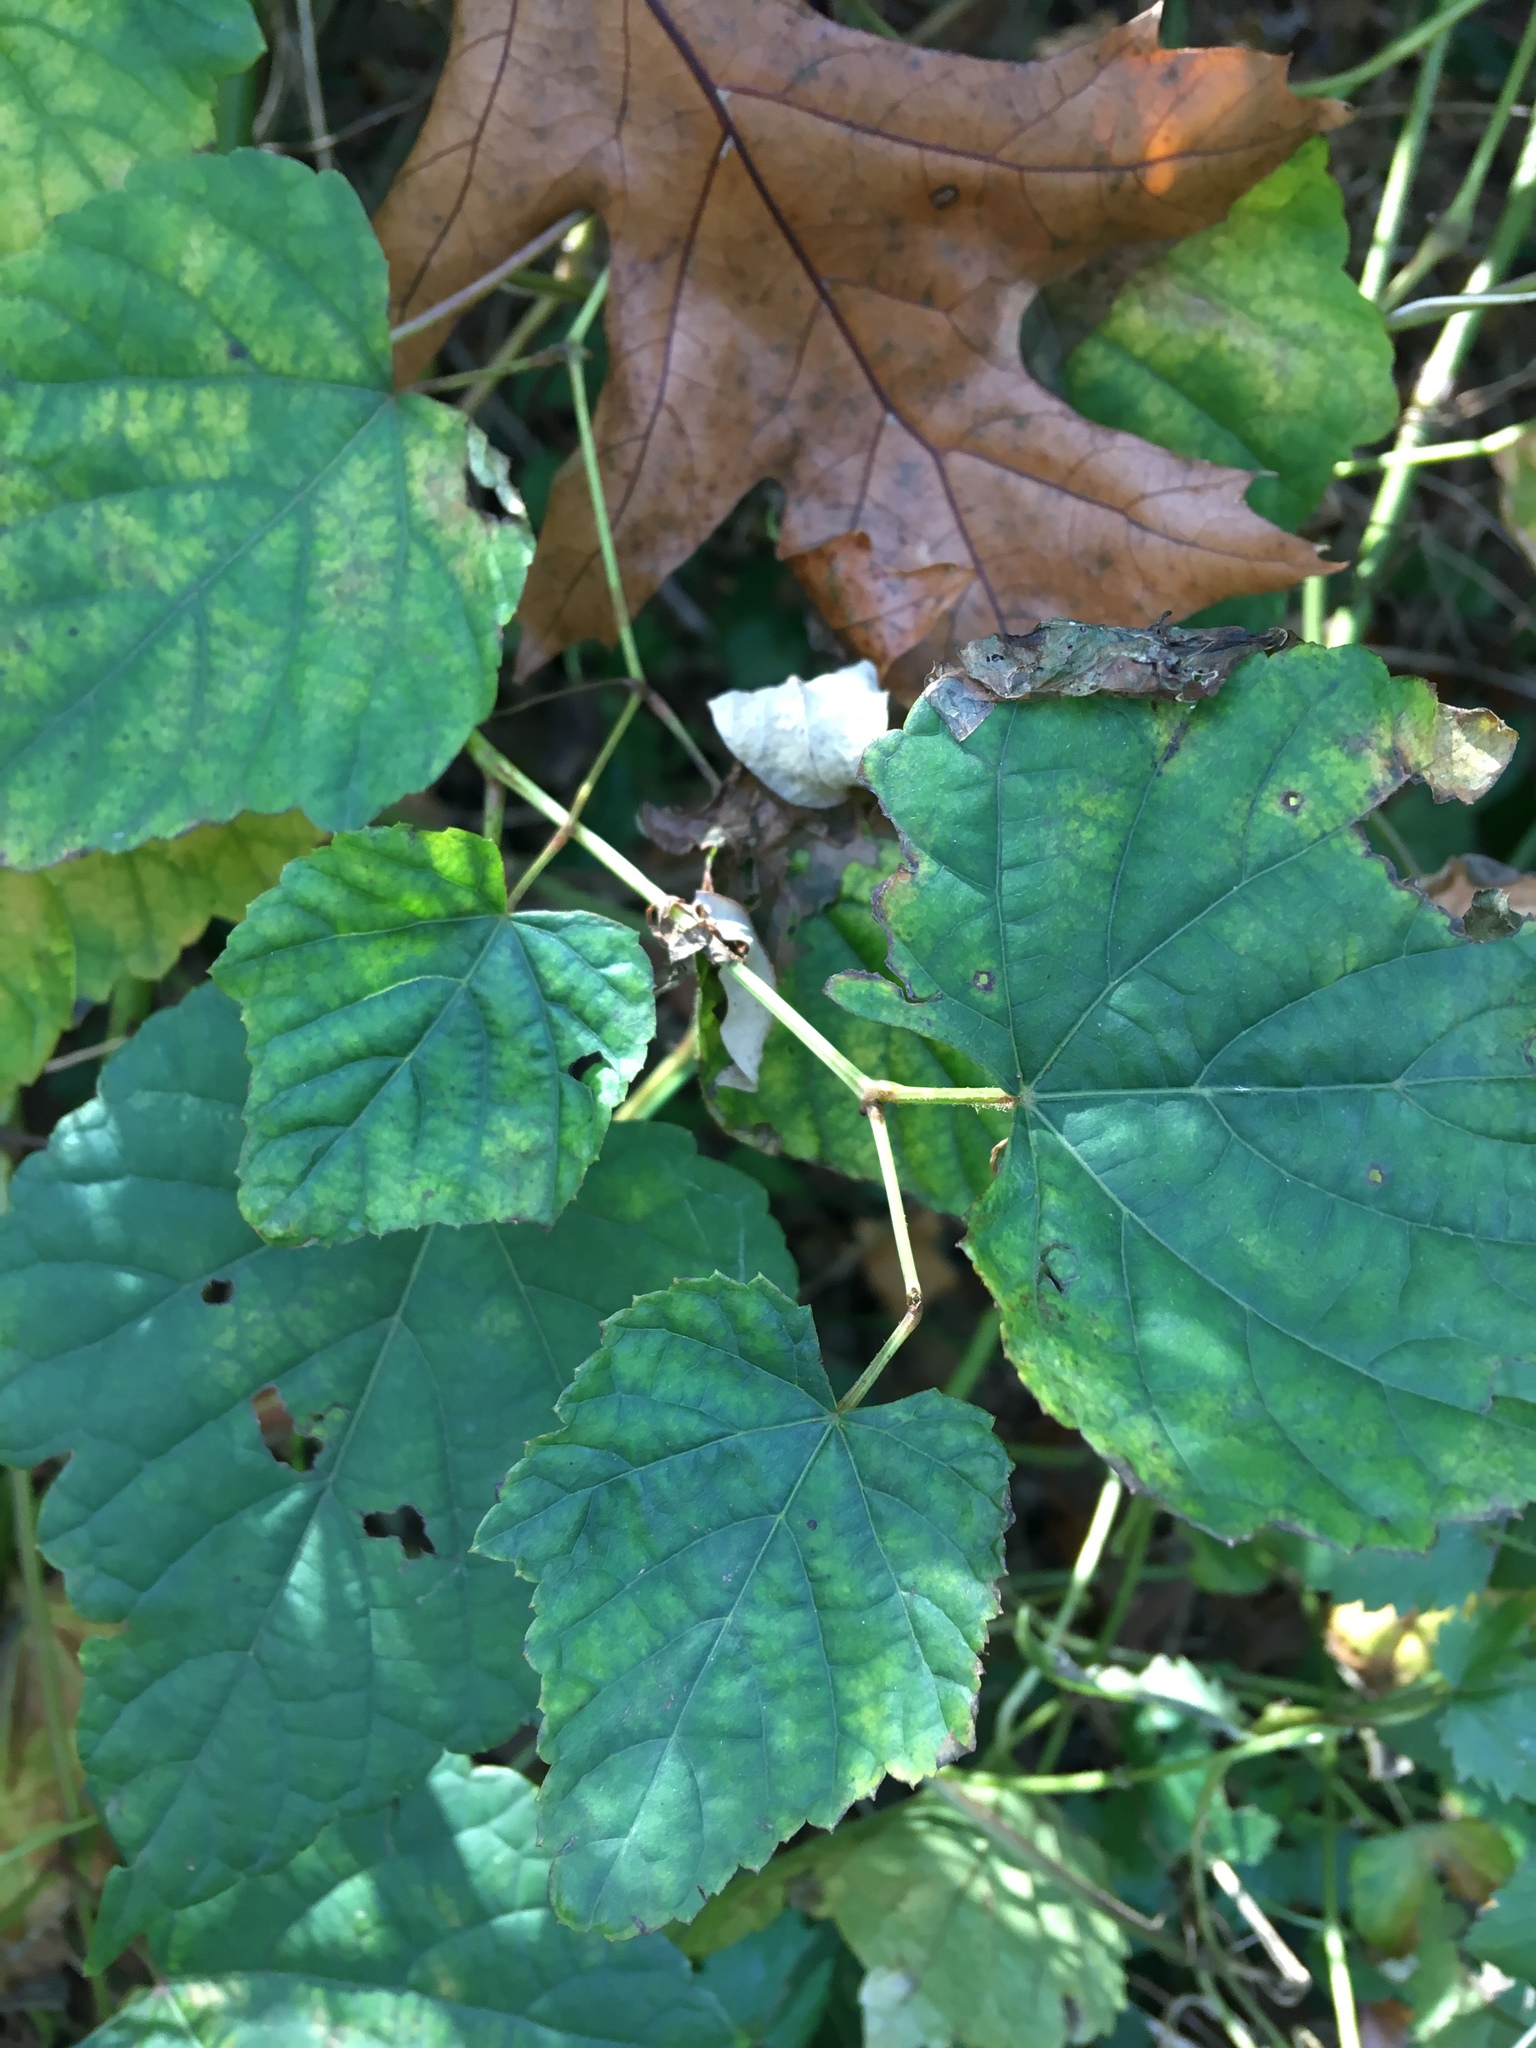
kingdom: Plantae
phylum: Tracheophyta
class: Magnoliopsida
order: Vitales
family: Vitaceae
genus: Ampelopsis
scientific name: Ampelopsis glandulosa
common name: Amur peppervine
